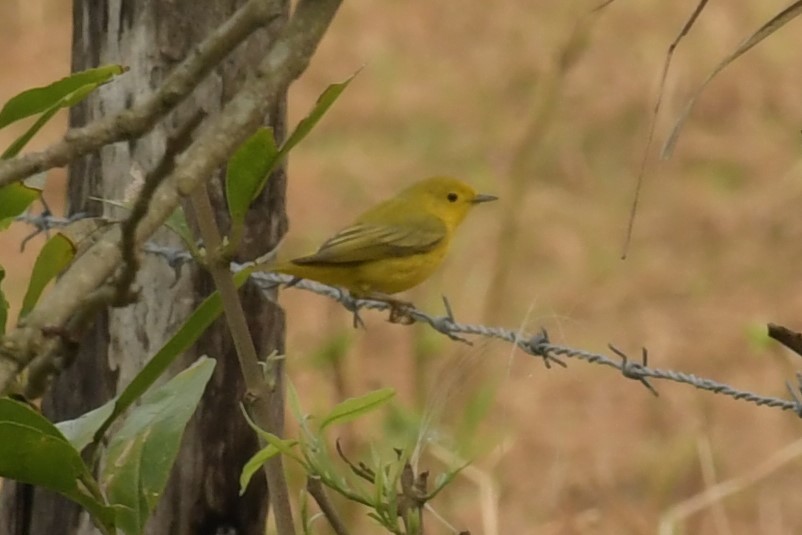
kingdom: Animalia
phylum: Chordata
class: Aves
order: Passeriformes
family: Parulidae
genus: Setophaga
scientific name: Setophaga petechia
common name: Yellow warbler
